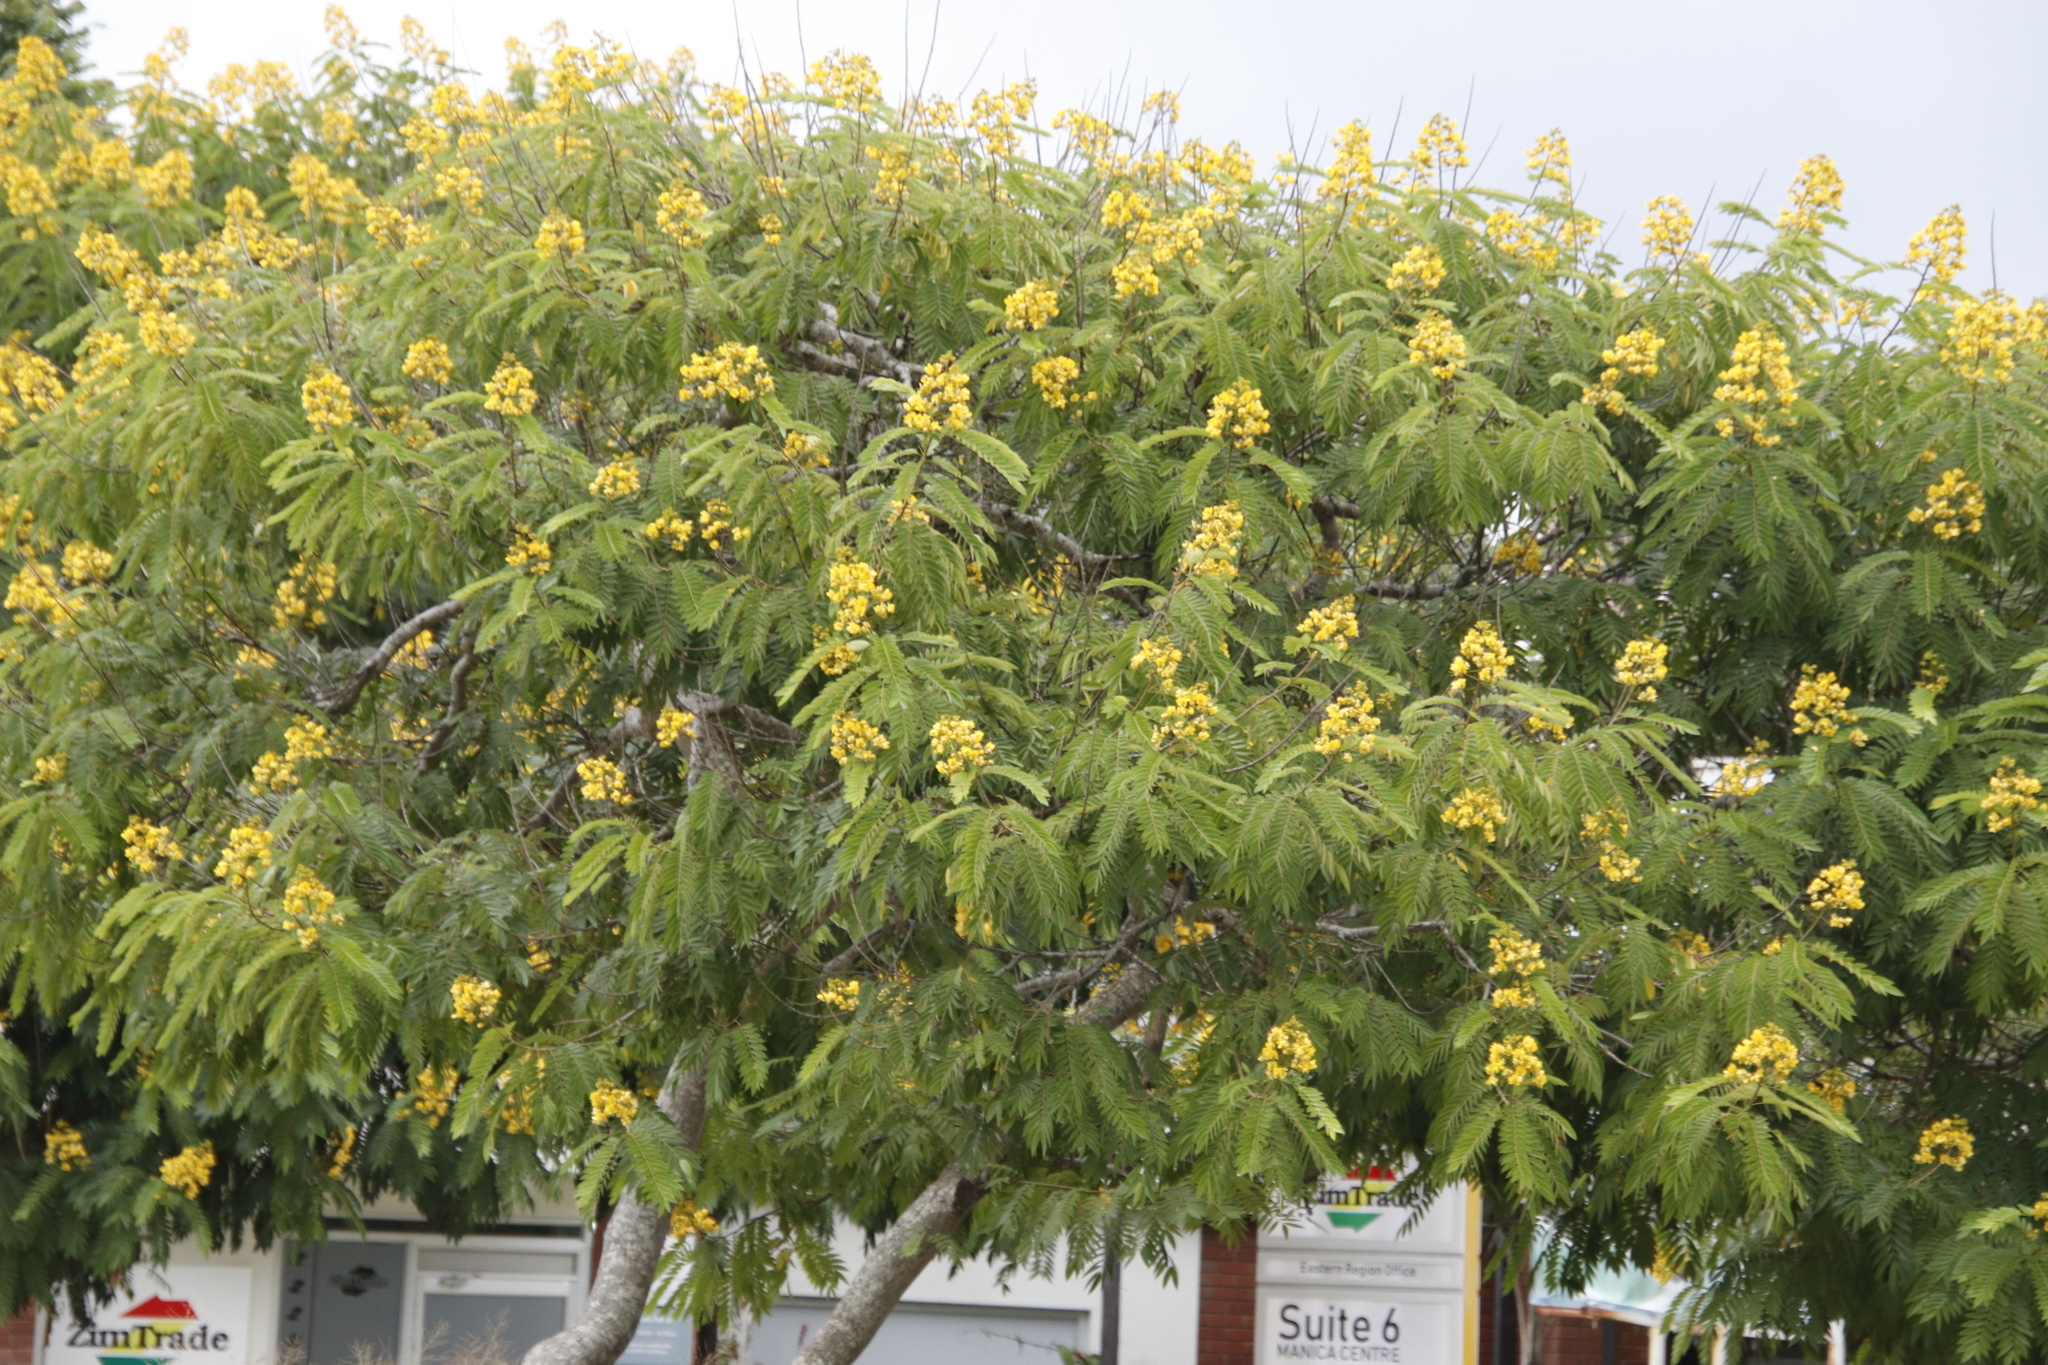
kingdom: Plantae
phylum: Tracheophyta
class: Magnoliopsida
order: Fabales
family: Fabaceae
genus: Senna
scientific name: Senna spectabilis
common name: Casia amarilla
